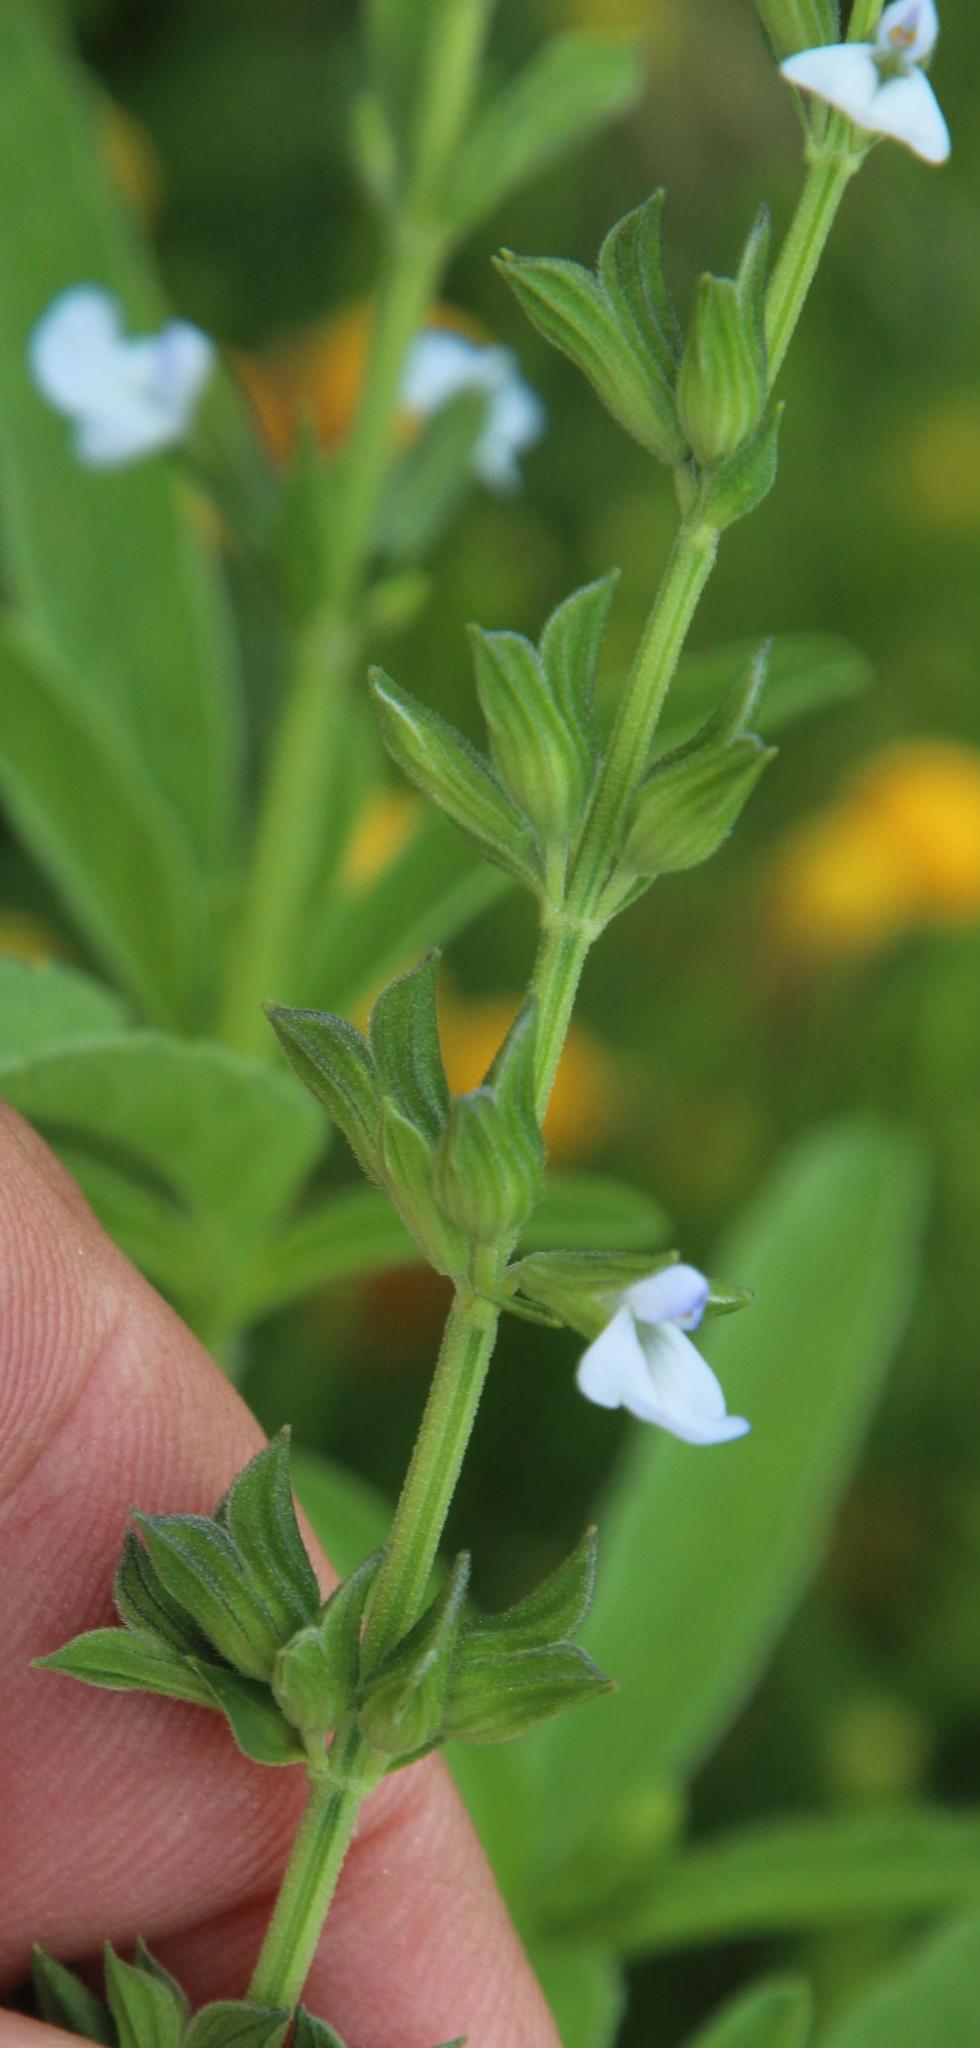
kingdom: Plantae
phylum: Tracheophyta
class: Magnoliopsida
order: Lamiales
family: Lamiaceae
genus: Salvia
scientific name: Salvia reflexa
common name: Mintweed
